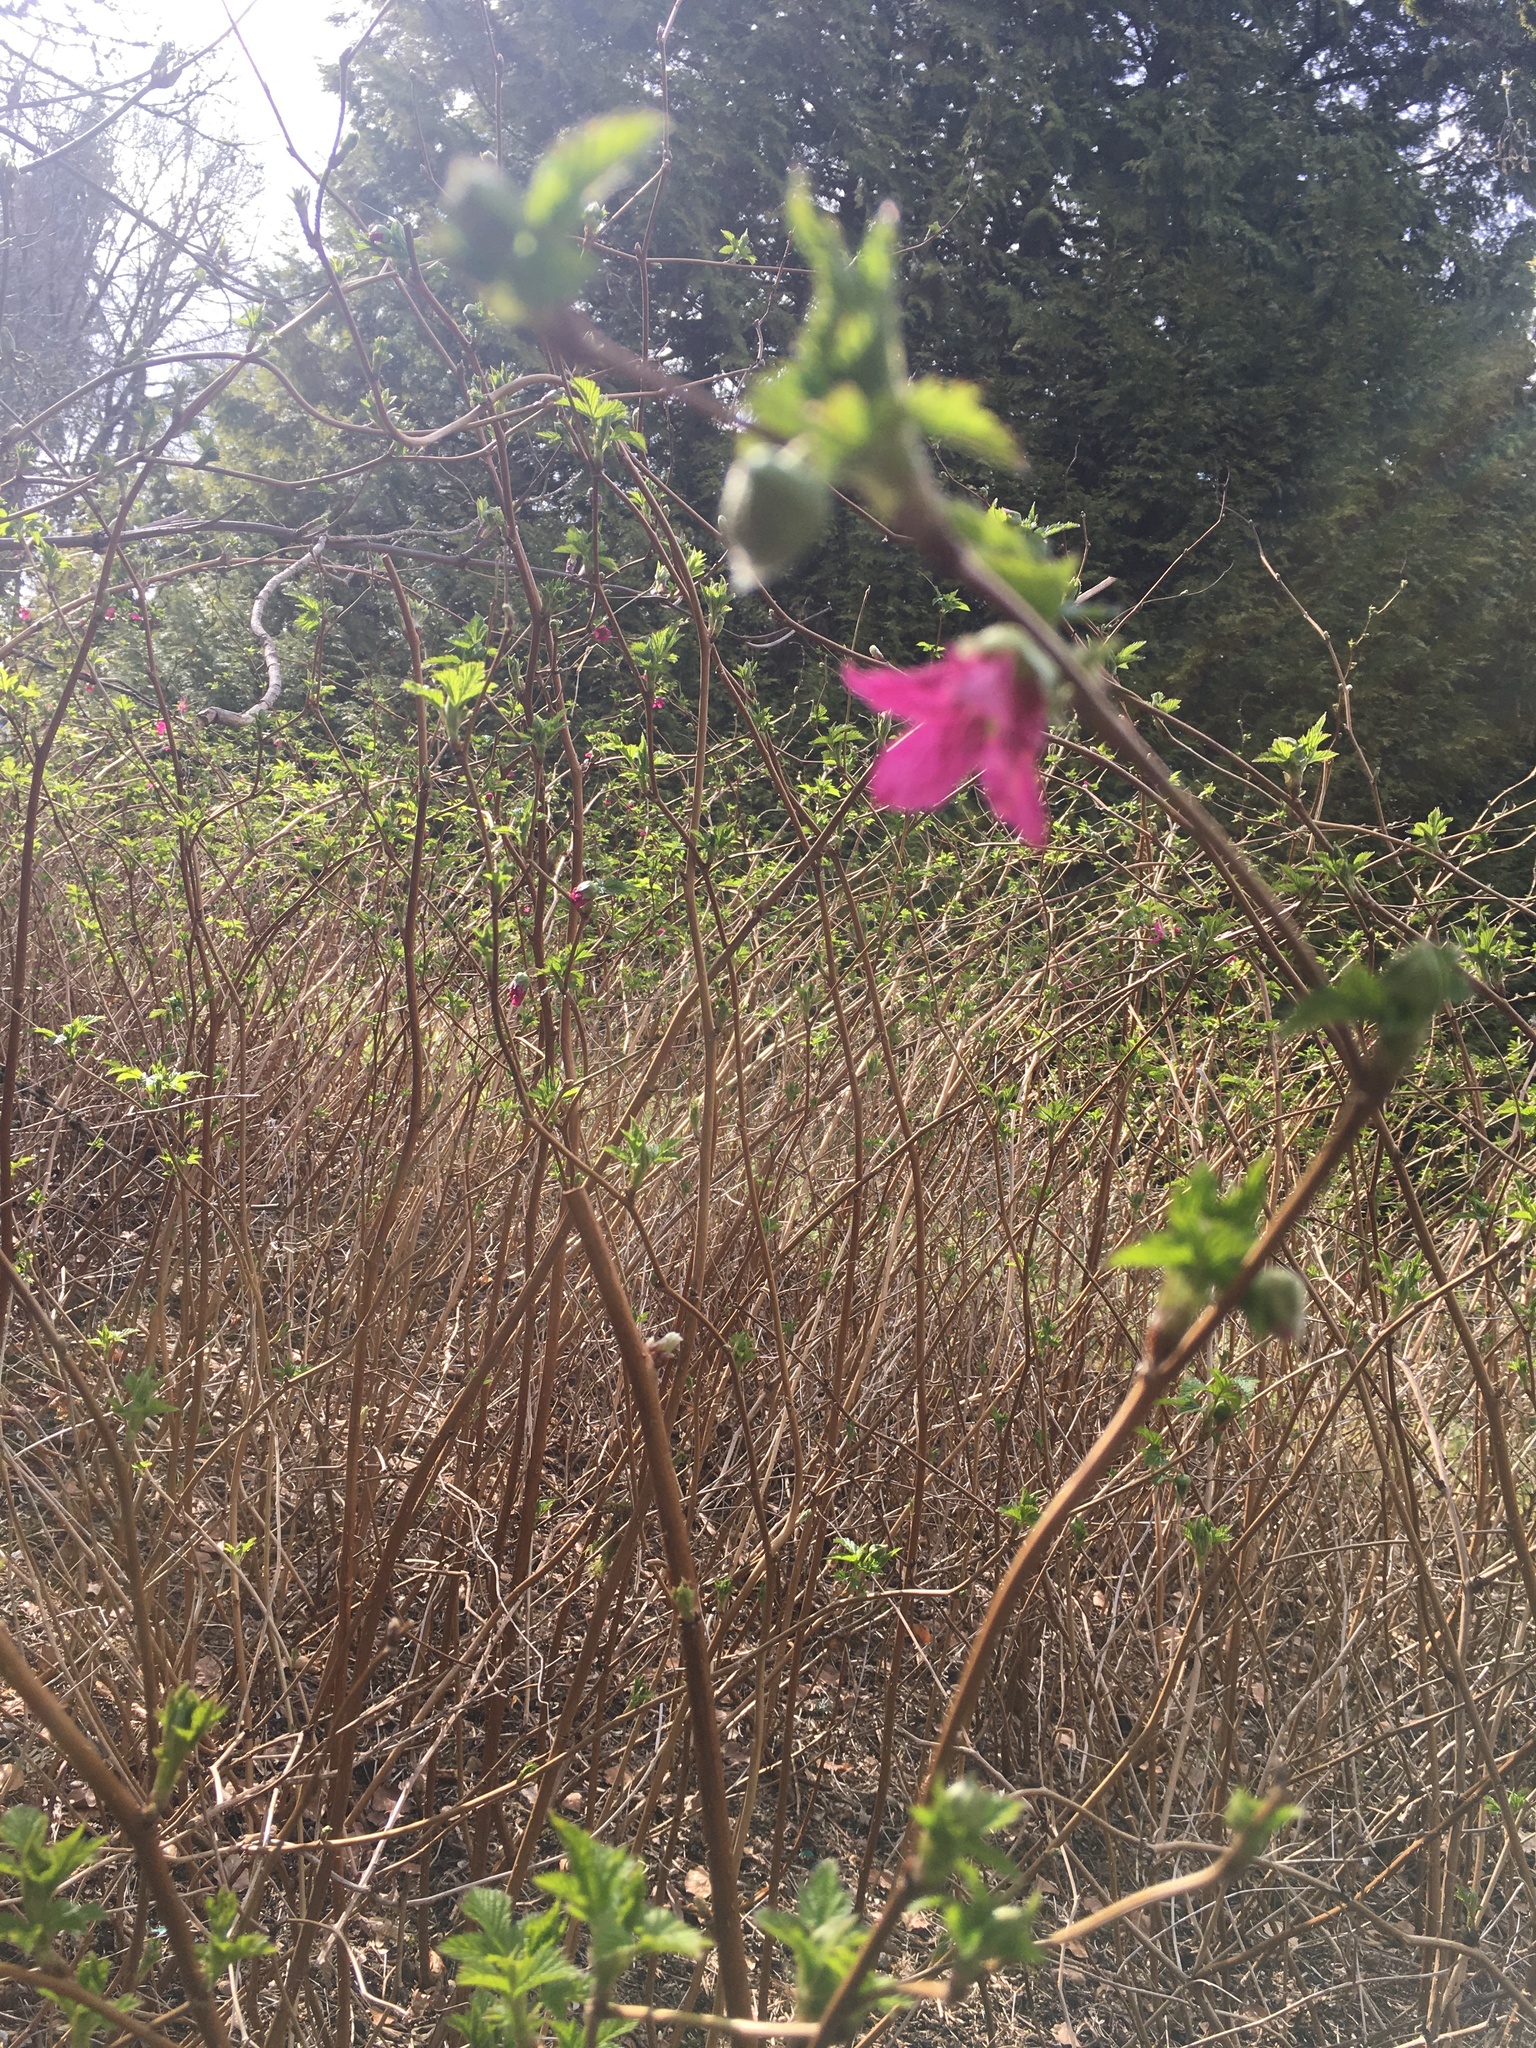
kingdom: Plantae
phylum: Tracheophyta
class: Magnoliopsida
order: Rosales
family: Rosaceae
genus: Rubus
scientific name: Rubus spectabilis
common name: Salmonberry
